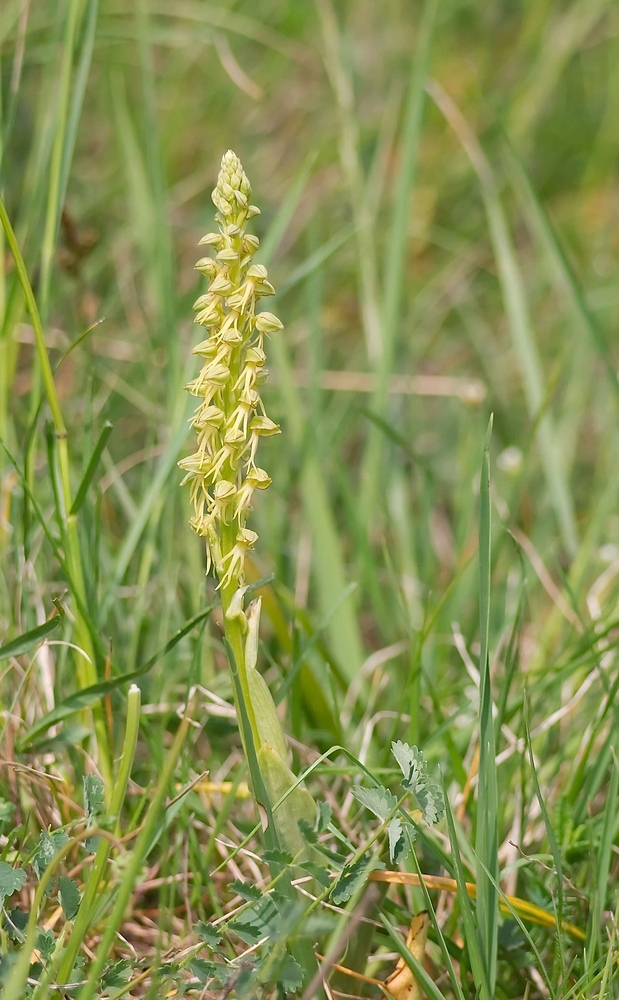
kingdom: Plantae
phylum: Tracheophyta
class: Liliopsida
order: Asparagales
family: Orchidaceae
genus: Orchis
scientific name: Orchis anthropophora
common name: Man orchid
